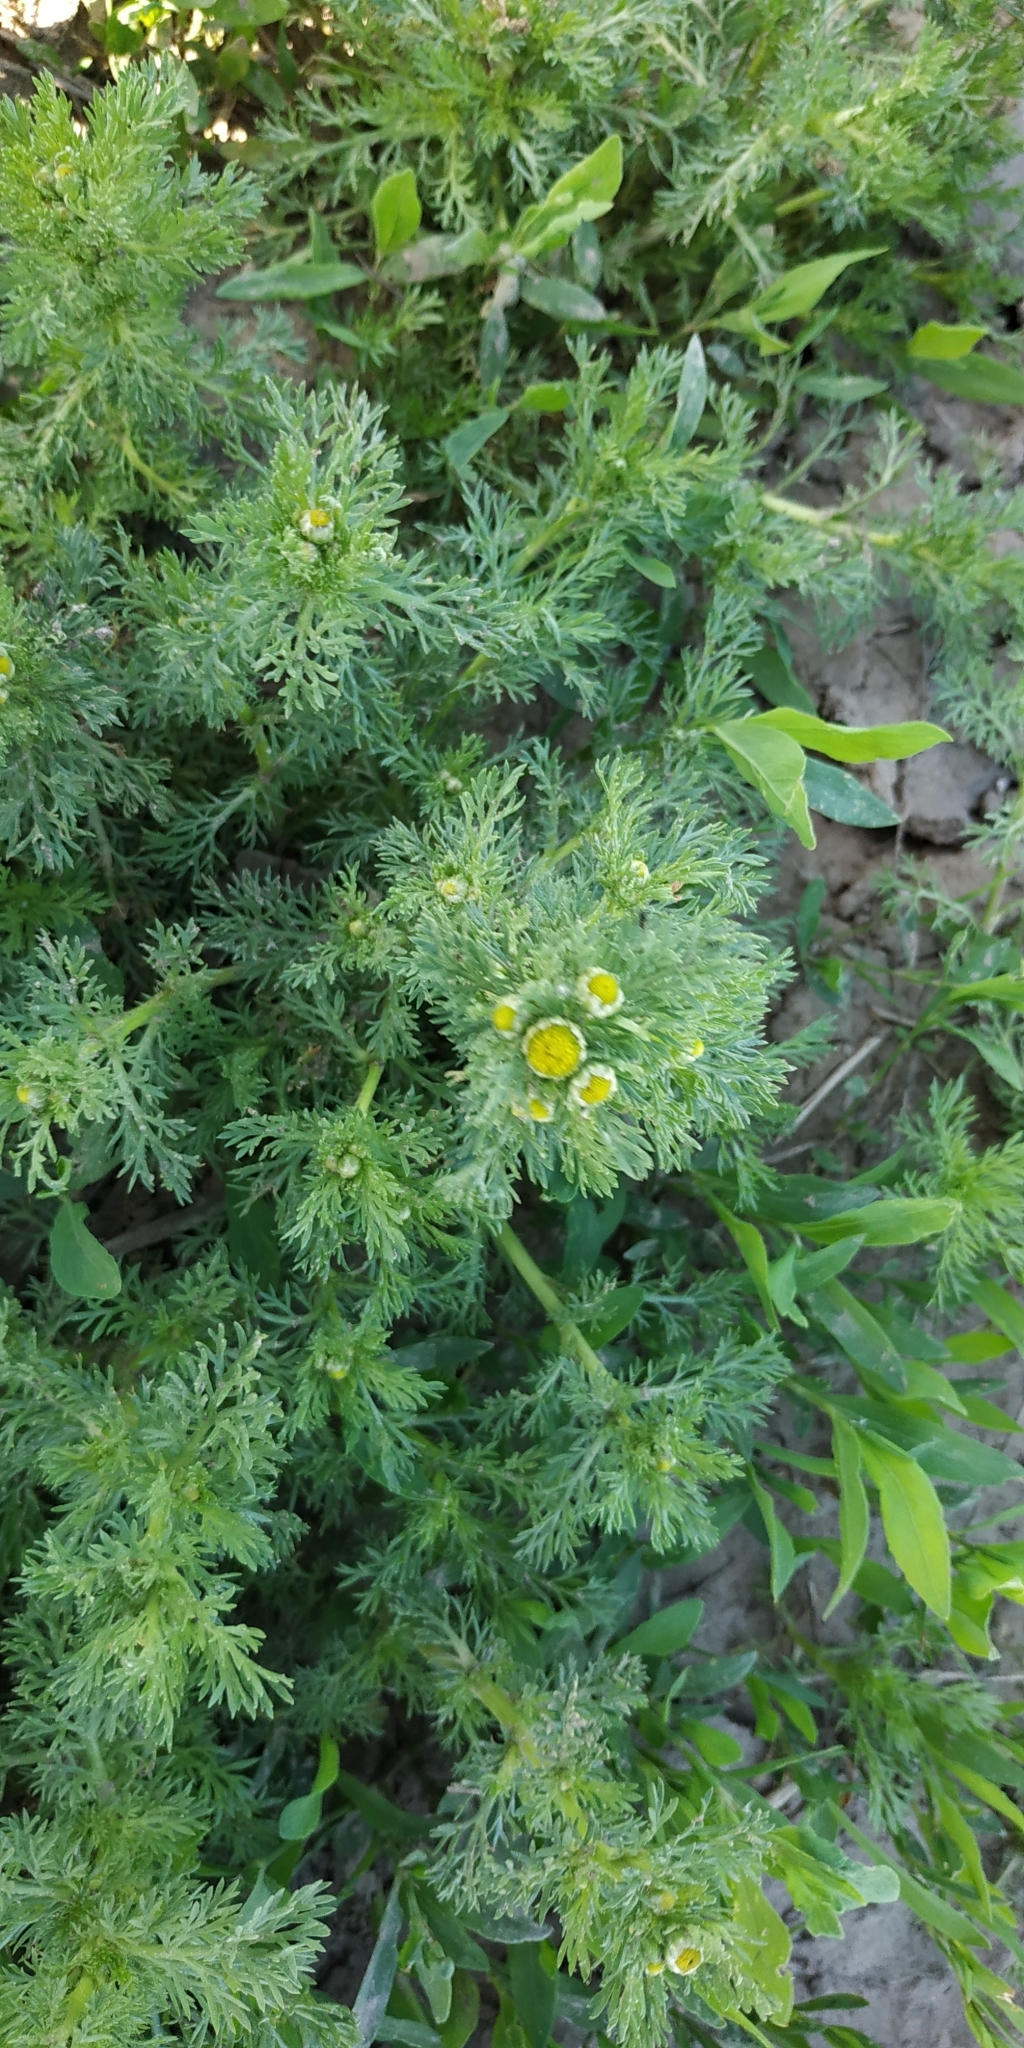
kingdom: Plantae
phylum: Tracheophyta
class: Magnoliopsida
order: Asterales
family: Asteraceae
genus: Matricaria
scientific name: Matricaria discoidea
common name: Disc mayweed
